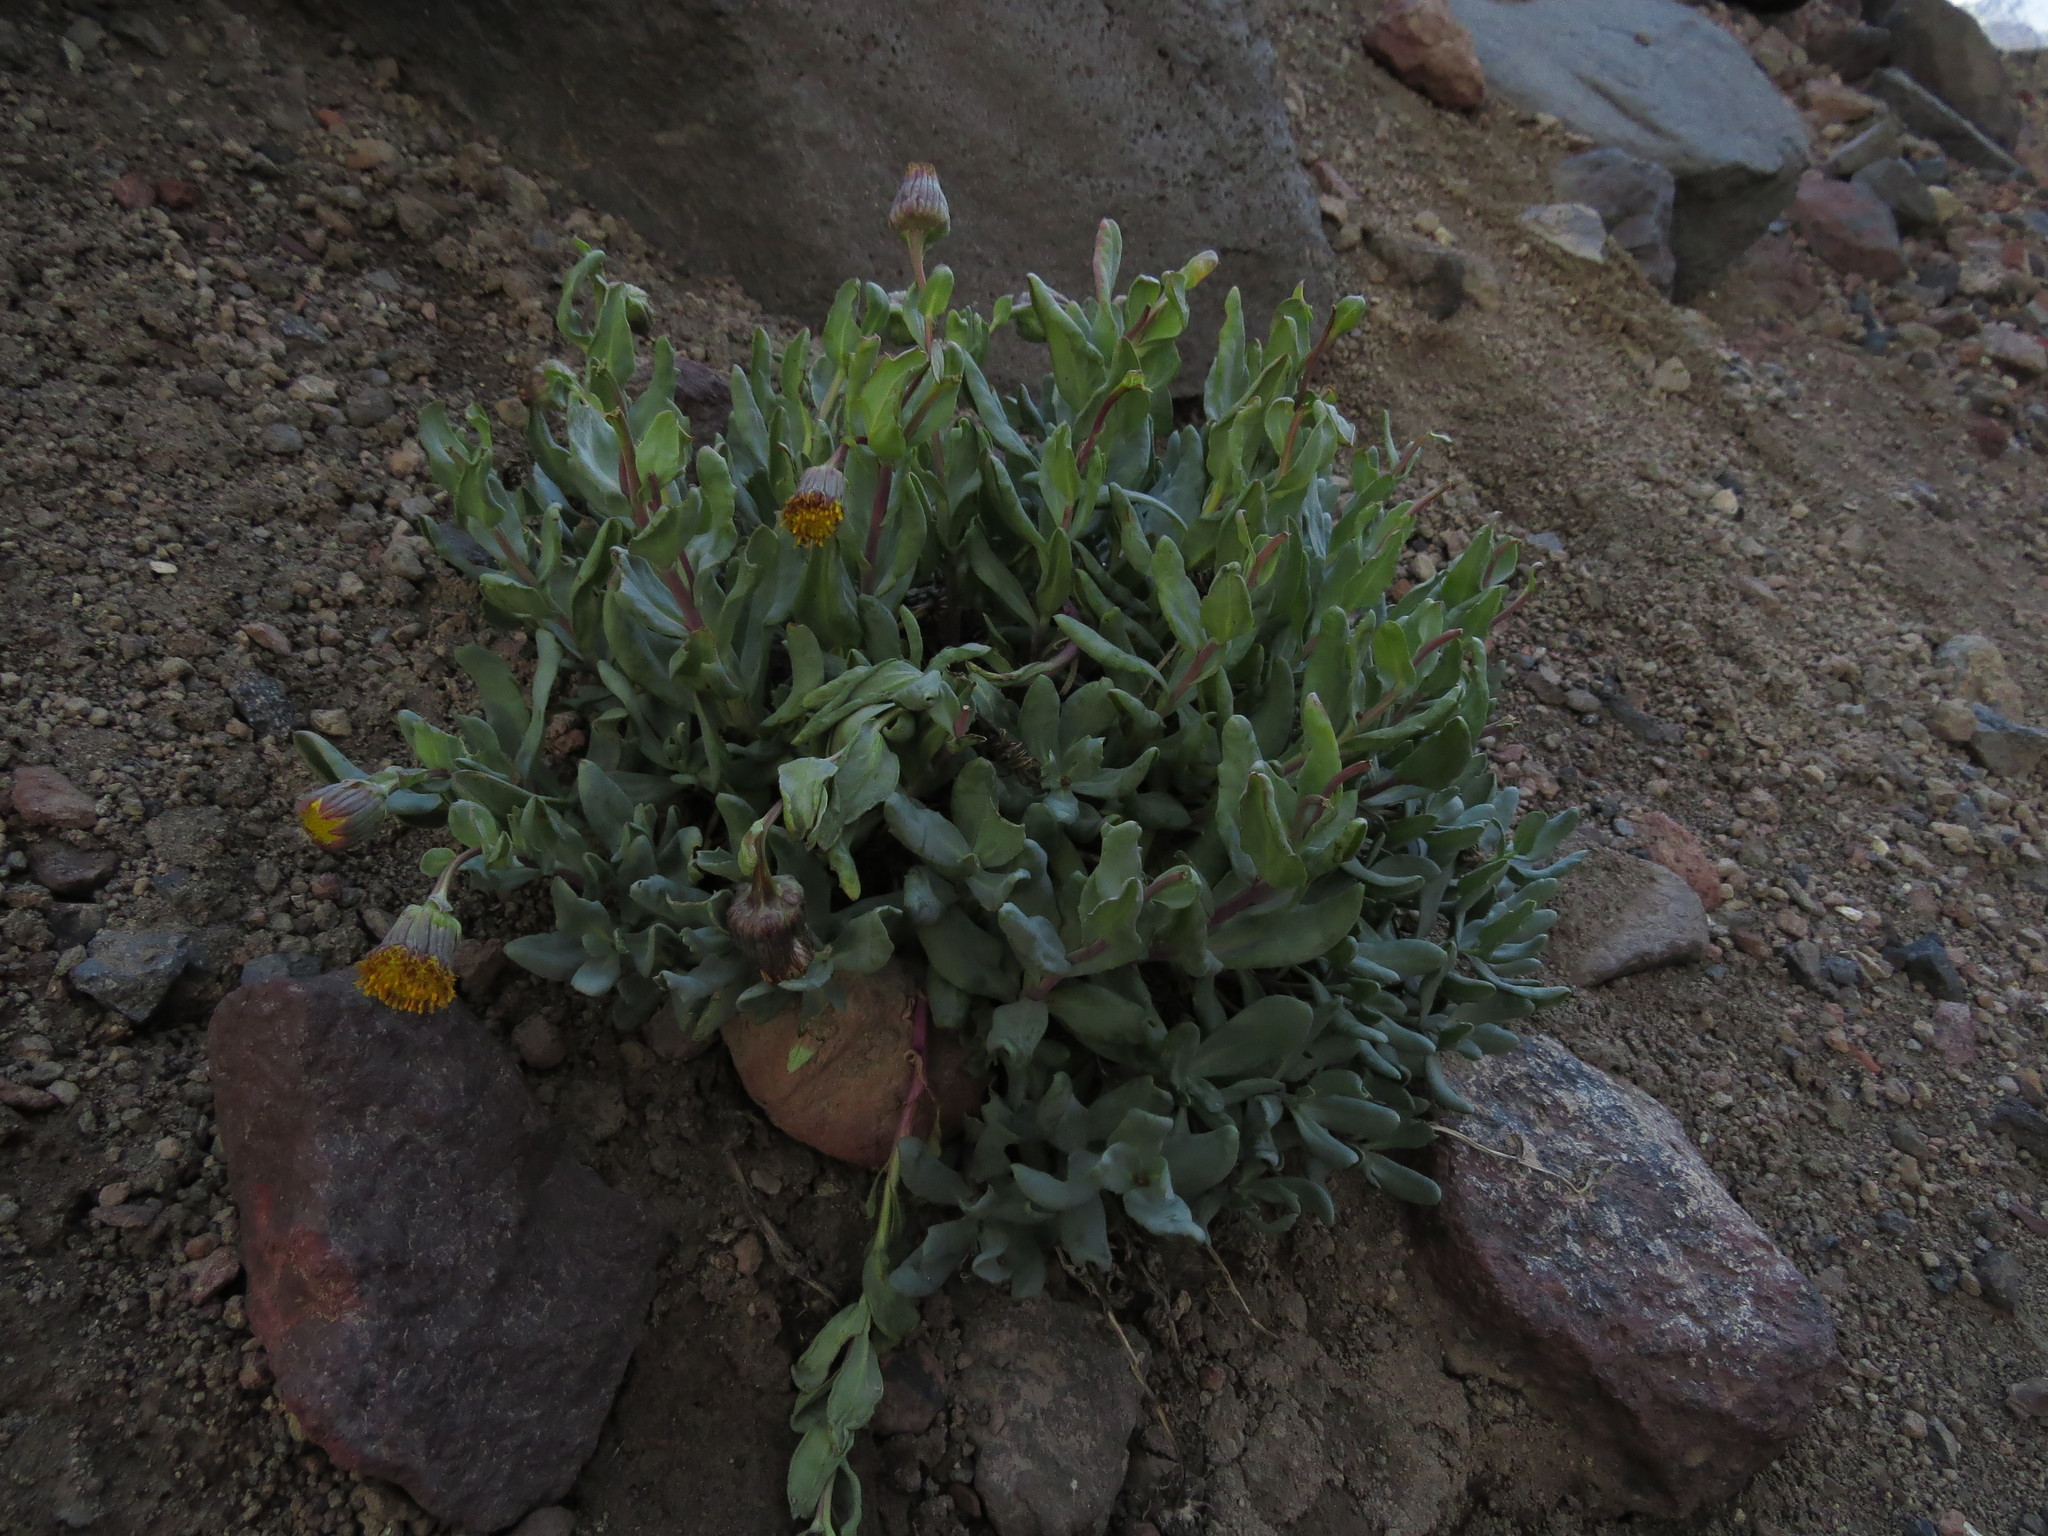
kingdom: Plantae
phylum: Tracheophyta
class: Magnoliopsida
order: Asterales
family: Asteraceae
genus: Senecio
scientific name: Senecio lithostaurus
